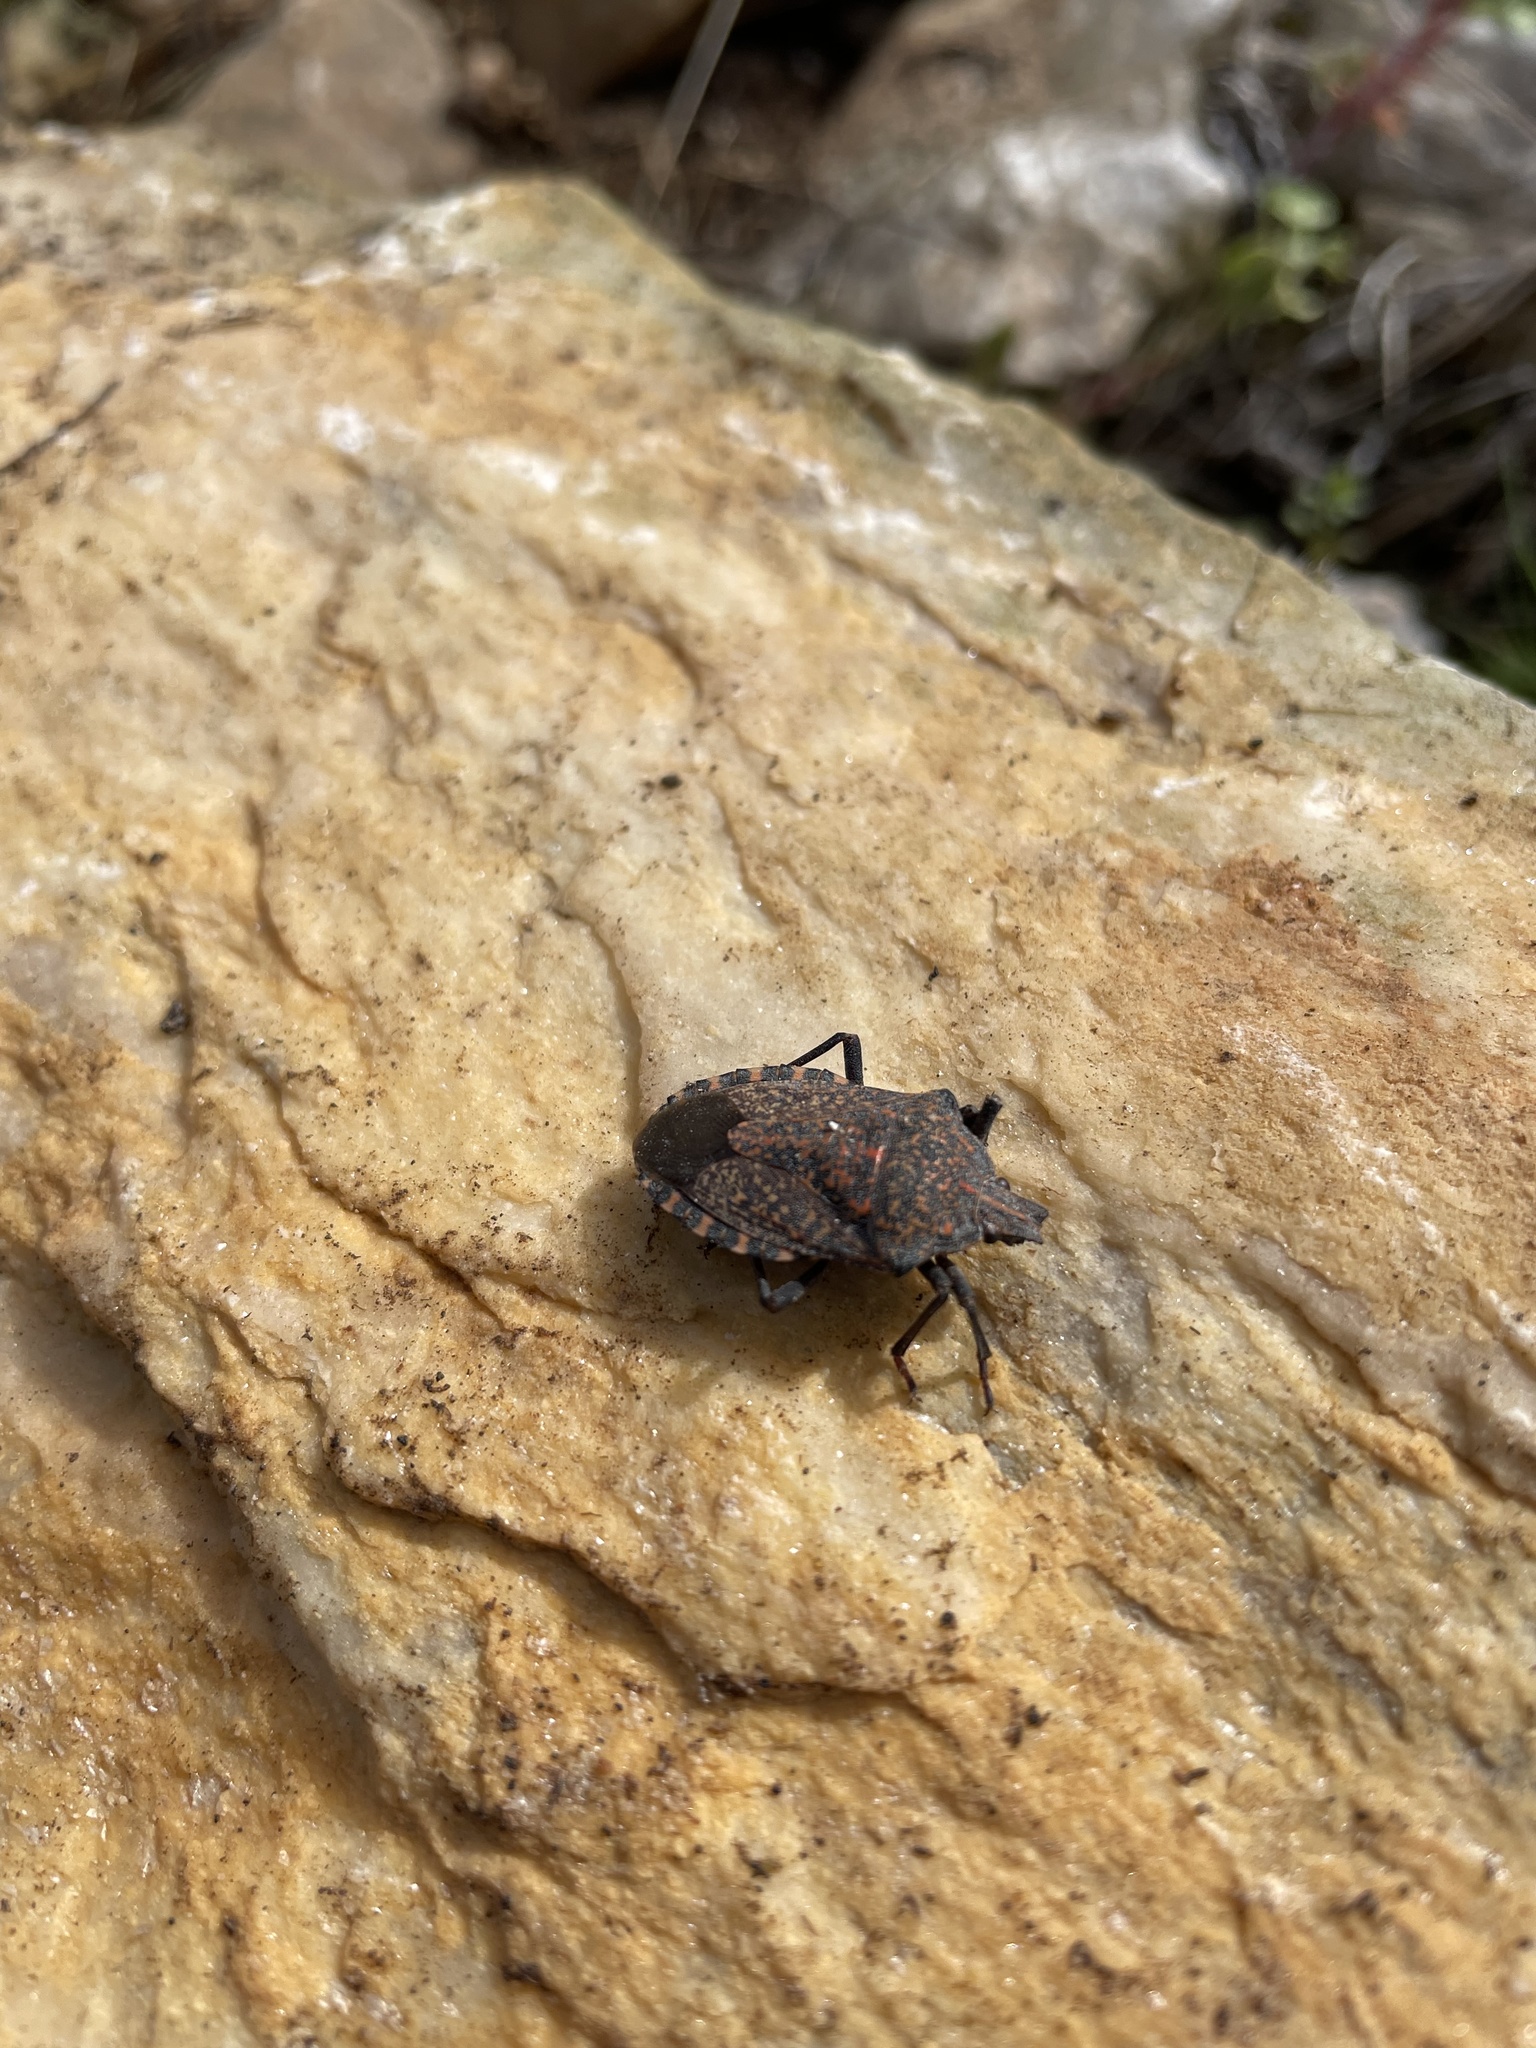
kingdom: Animalia
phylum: Arthropoda
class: Insecta
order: Hemiptera
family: Pentatomidae
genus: Apodiphus
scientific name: Apodiphus amygdali
